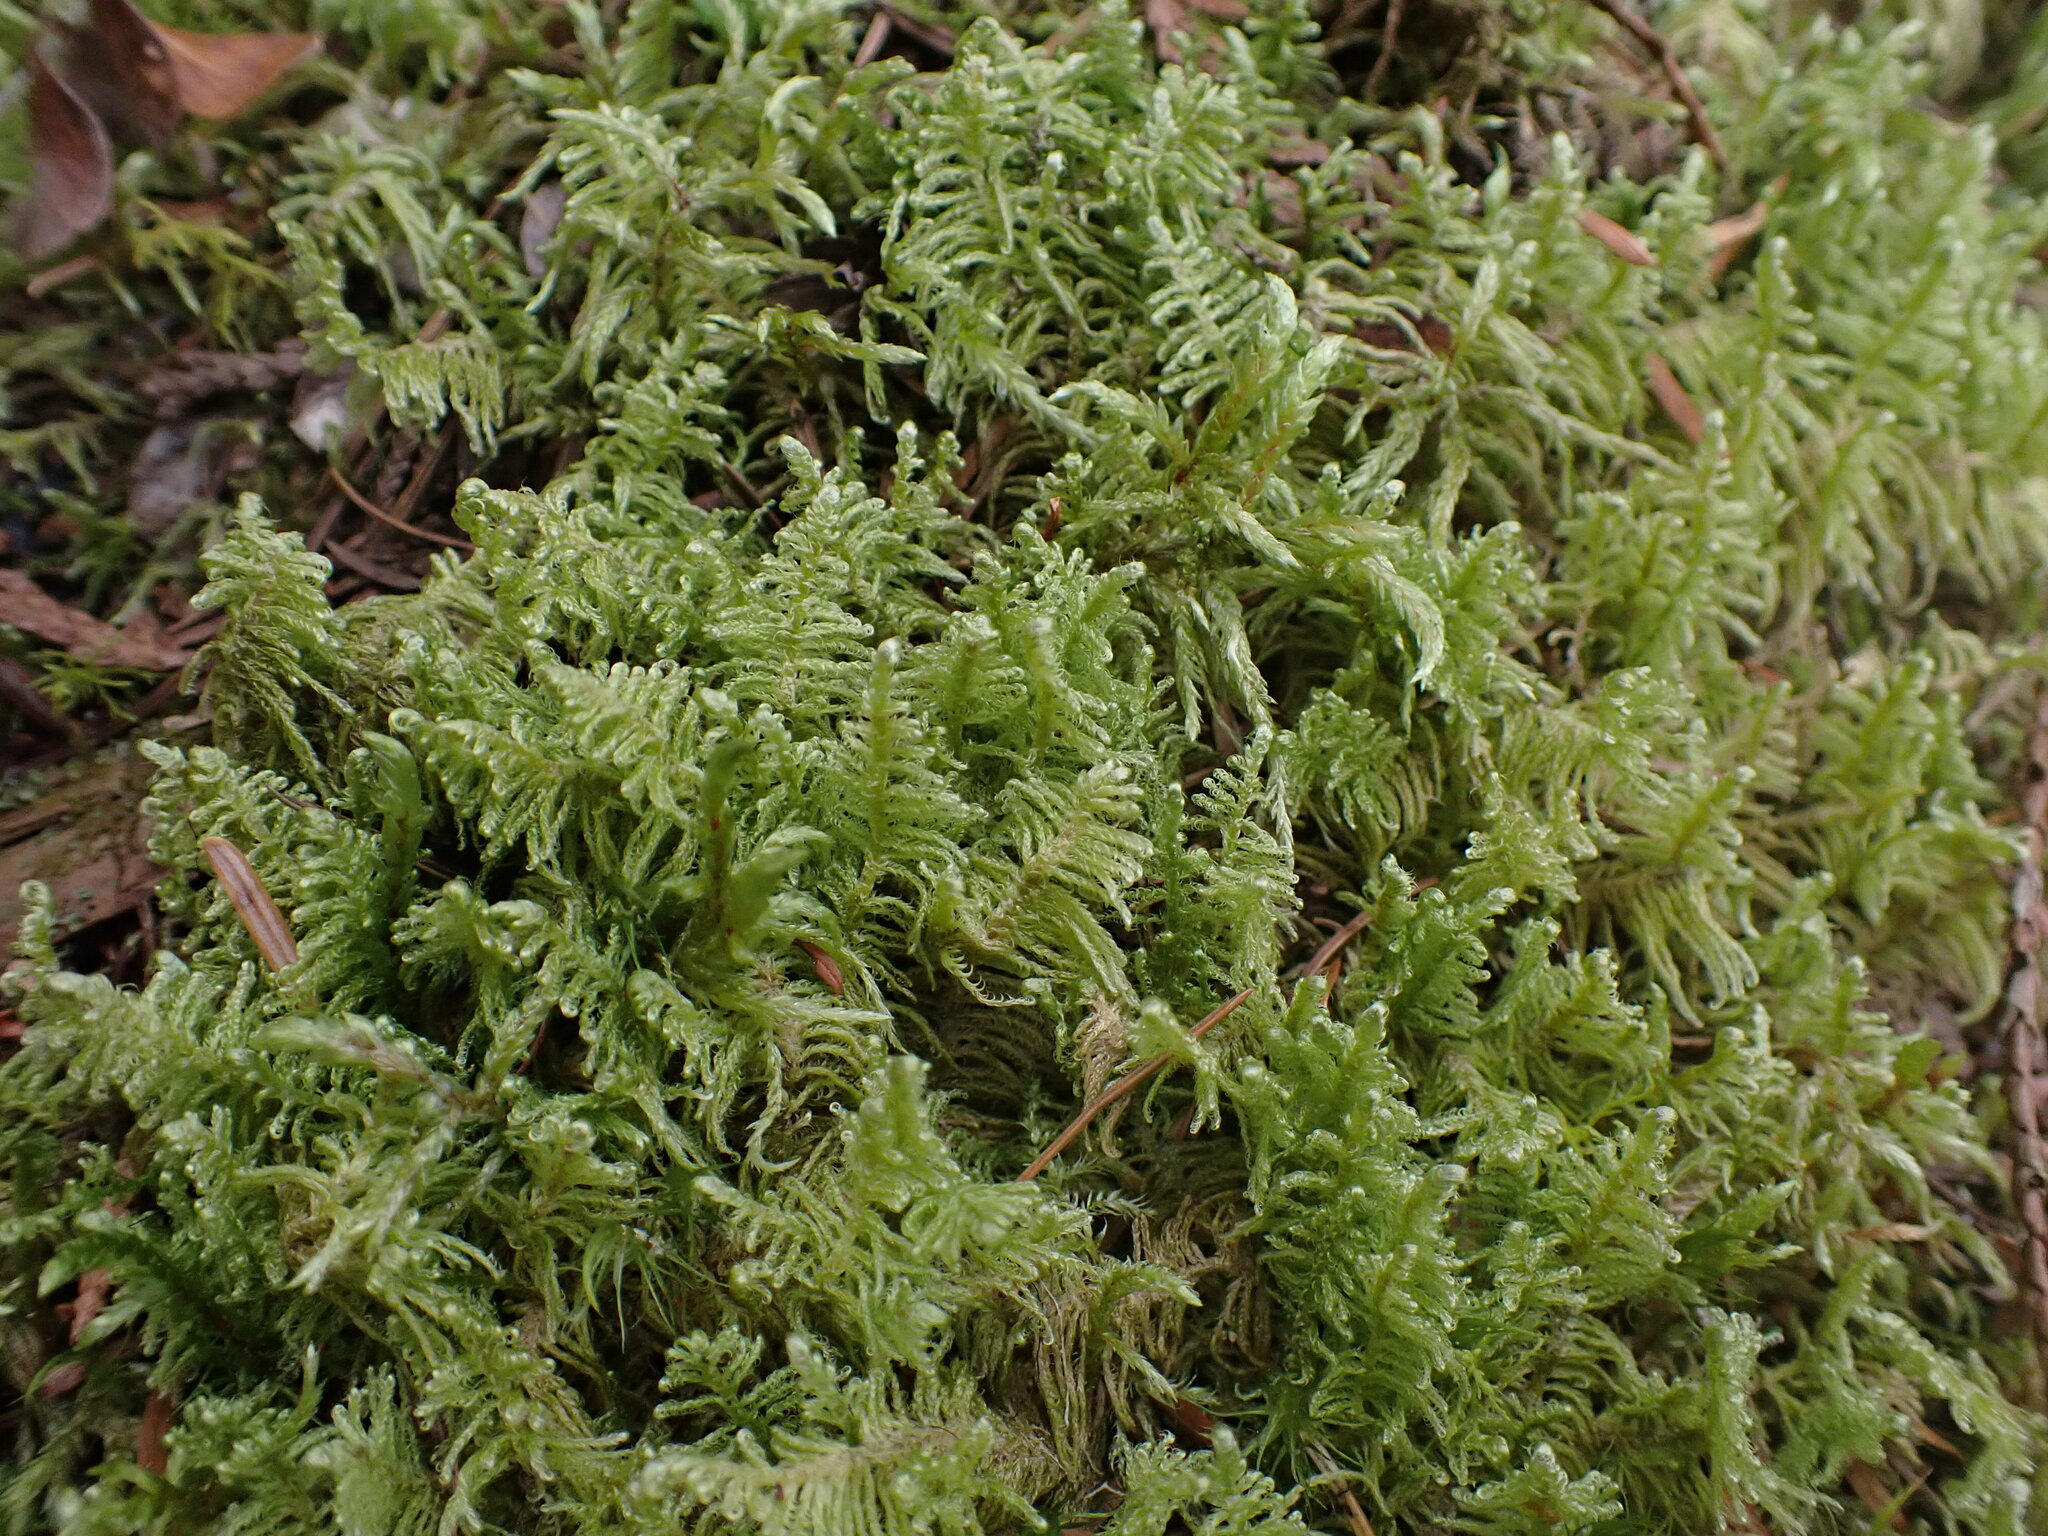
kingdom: Plantae
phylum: Bryophyta
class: Bryopsida
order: Hypnales
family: Pylaisiaceae
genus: Ptilium
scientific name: Ptilium crista-castrensis
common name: Knight's plume moss
